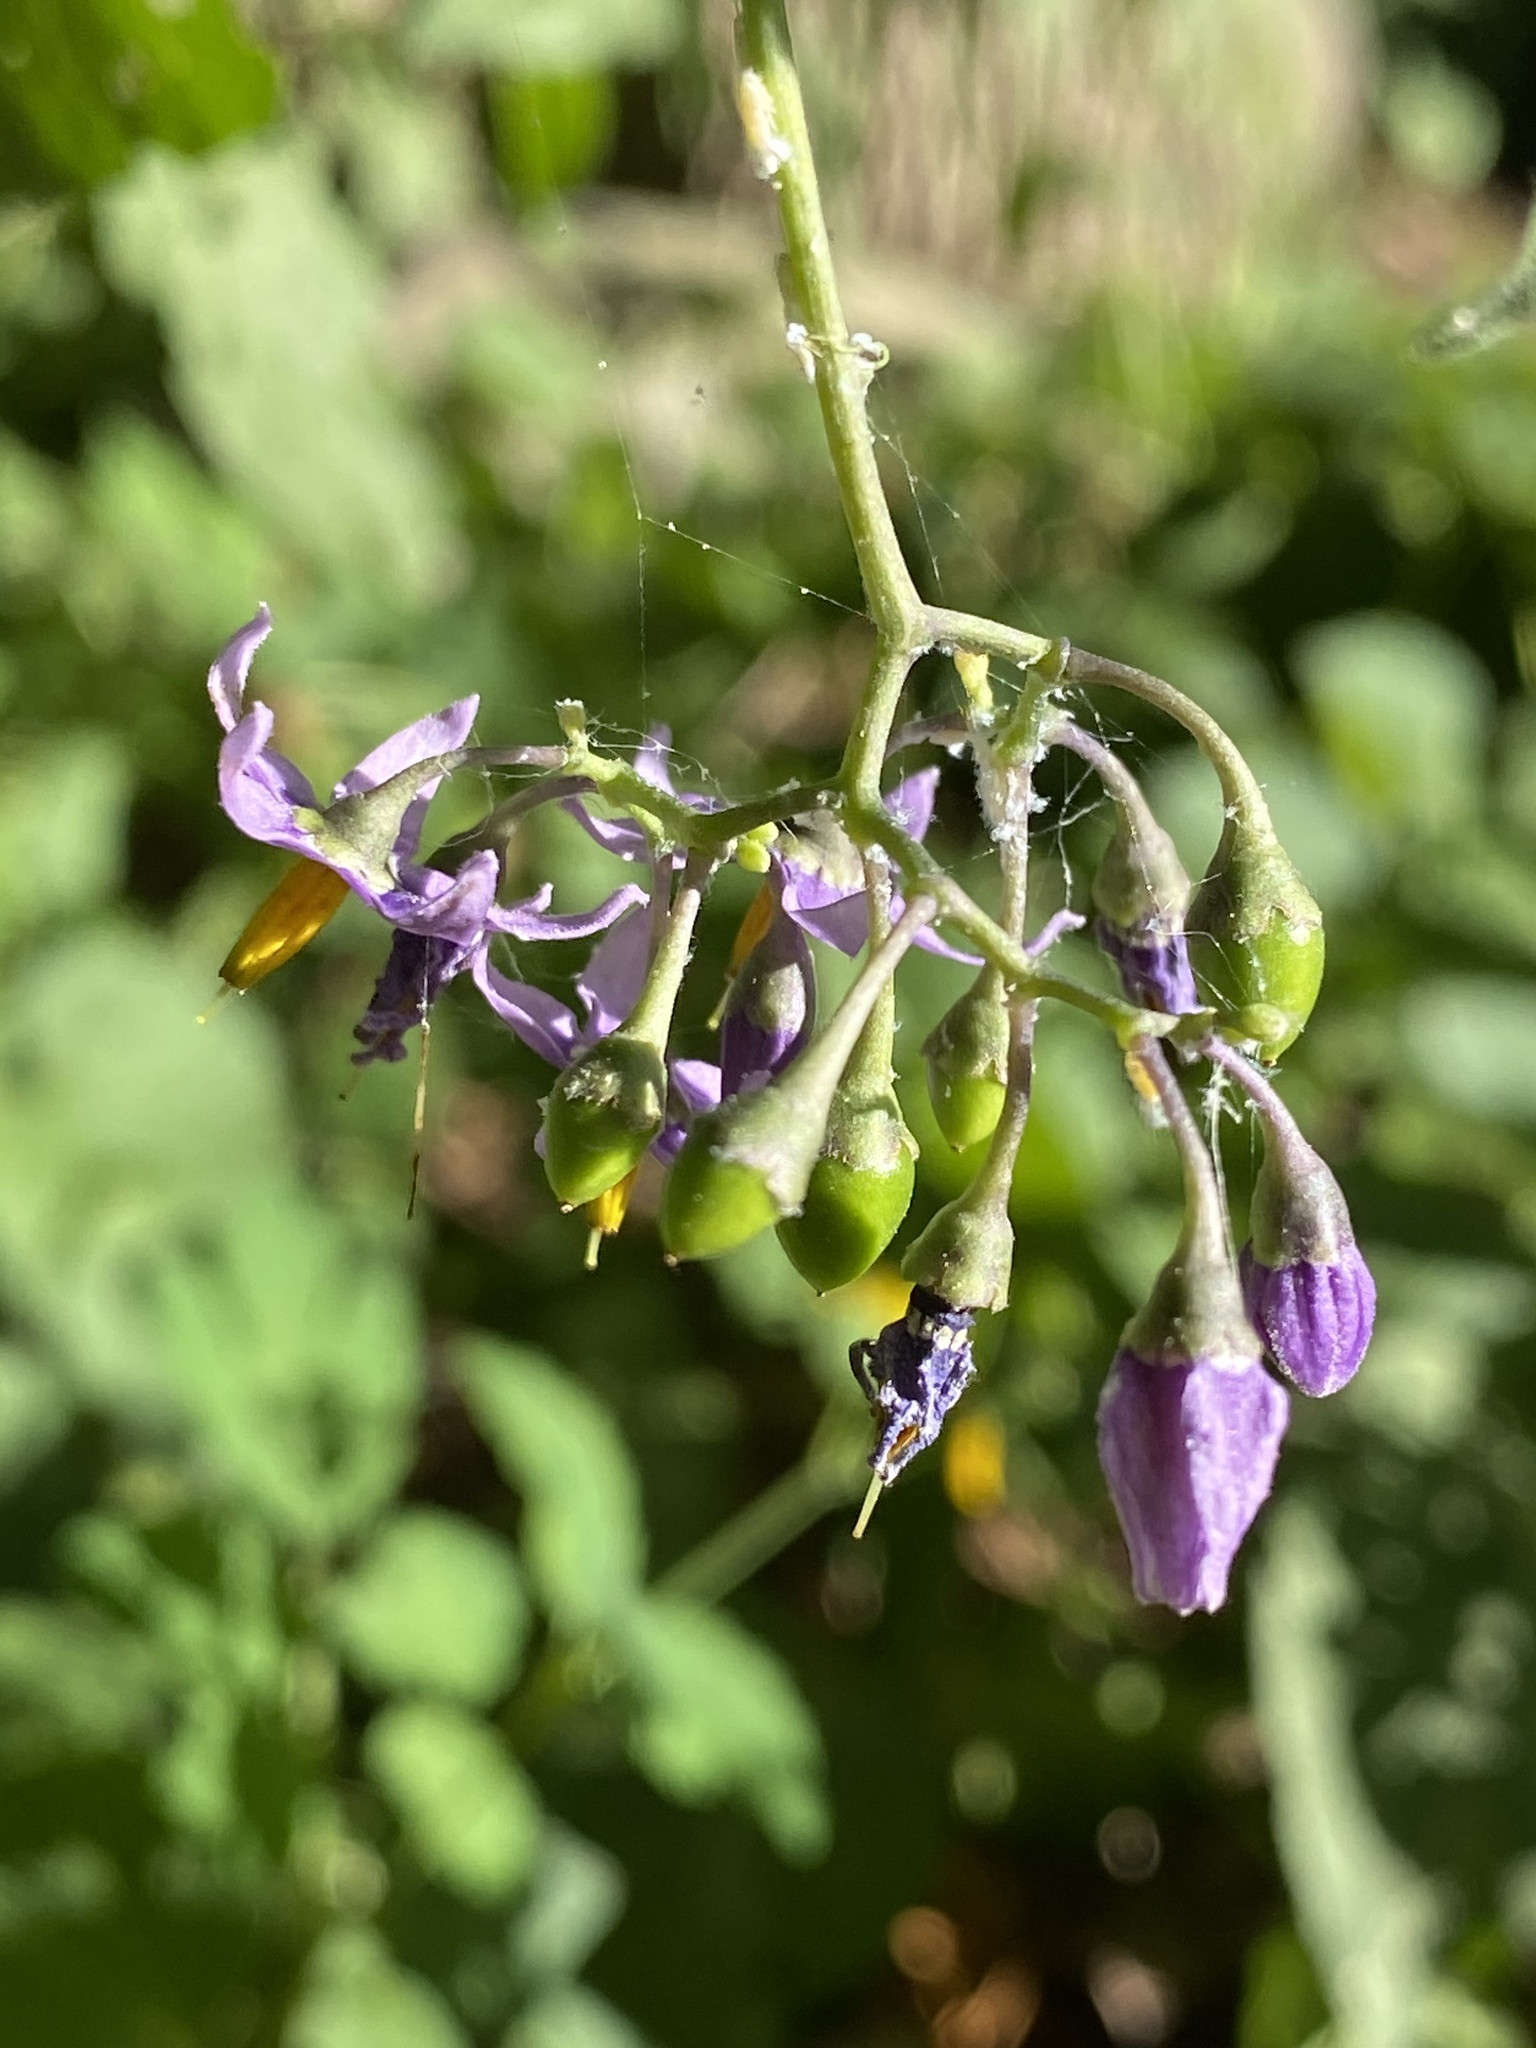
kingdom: Plantae
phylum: Tracheophyta
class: Magnoliopsida
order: Solanales
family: Solanaceae
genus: Solanum
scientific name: Solanum dulcamara
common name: Climbing nightshade
